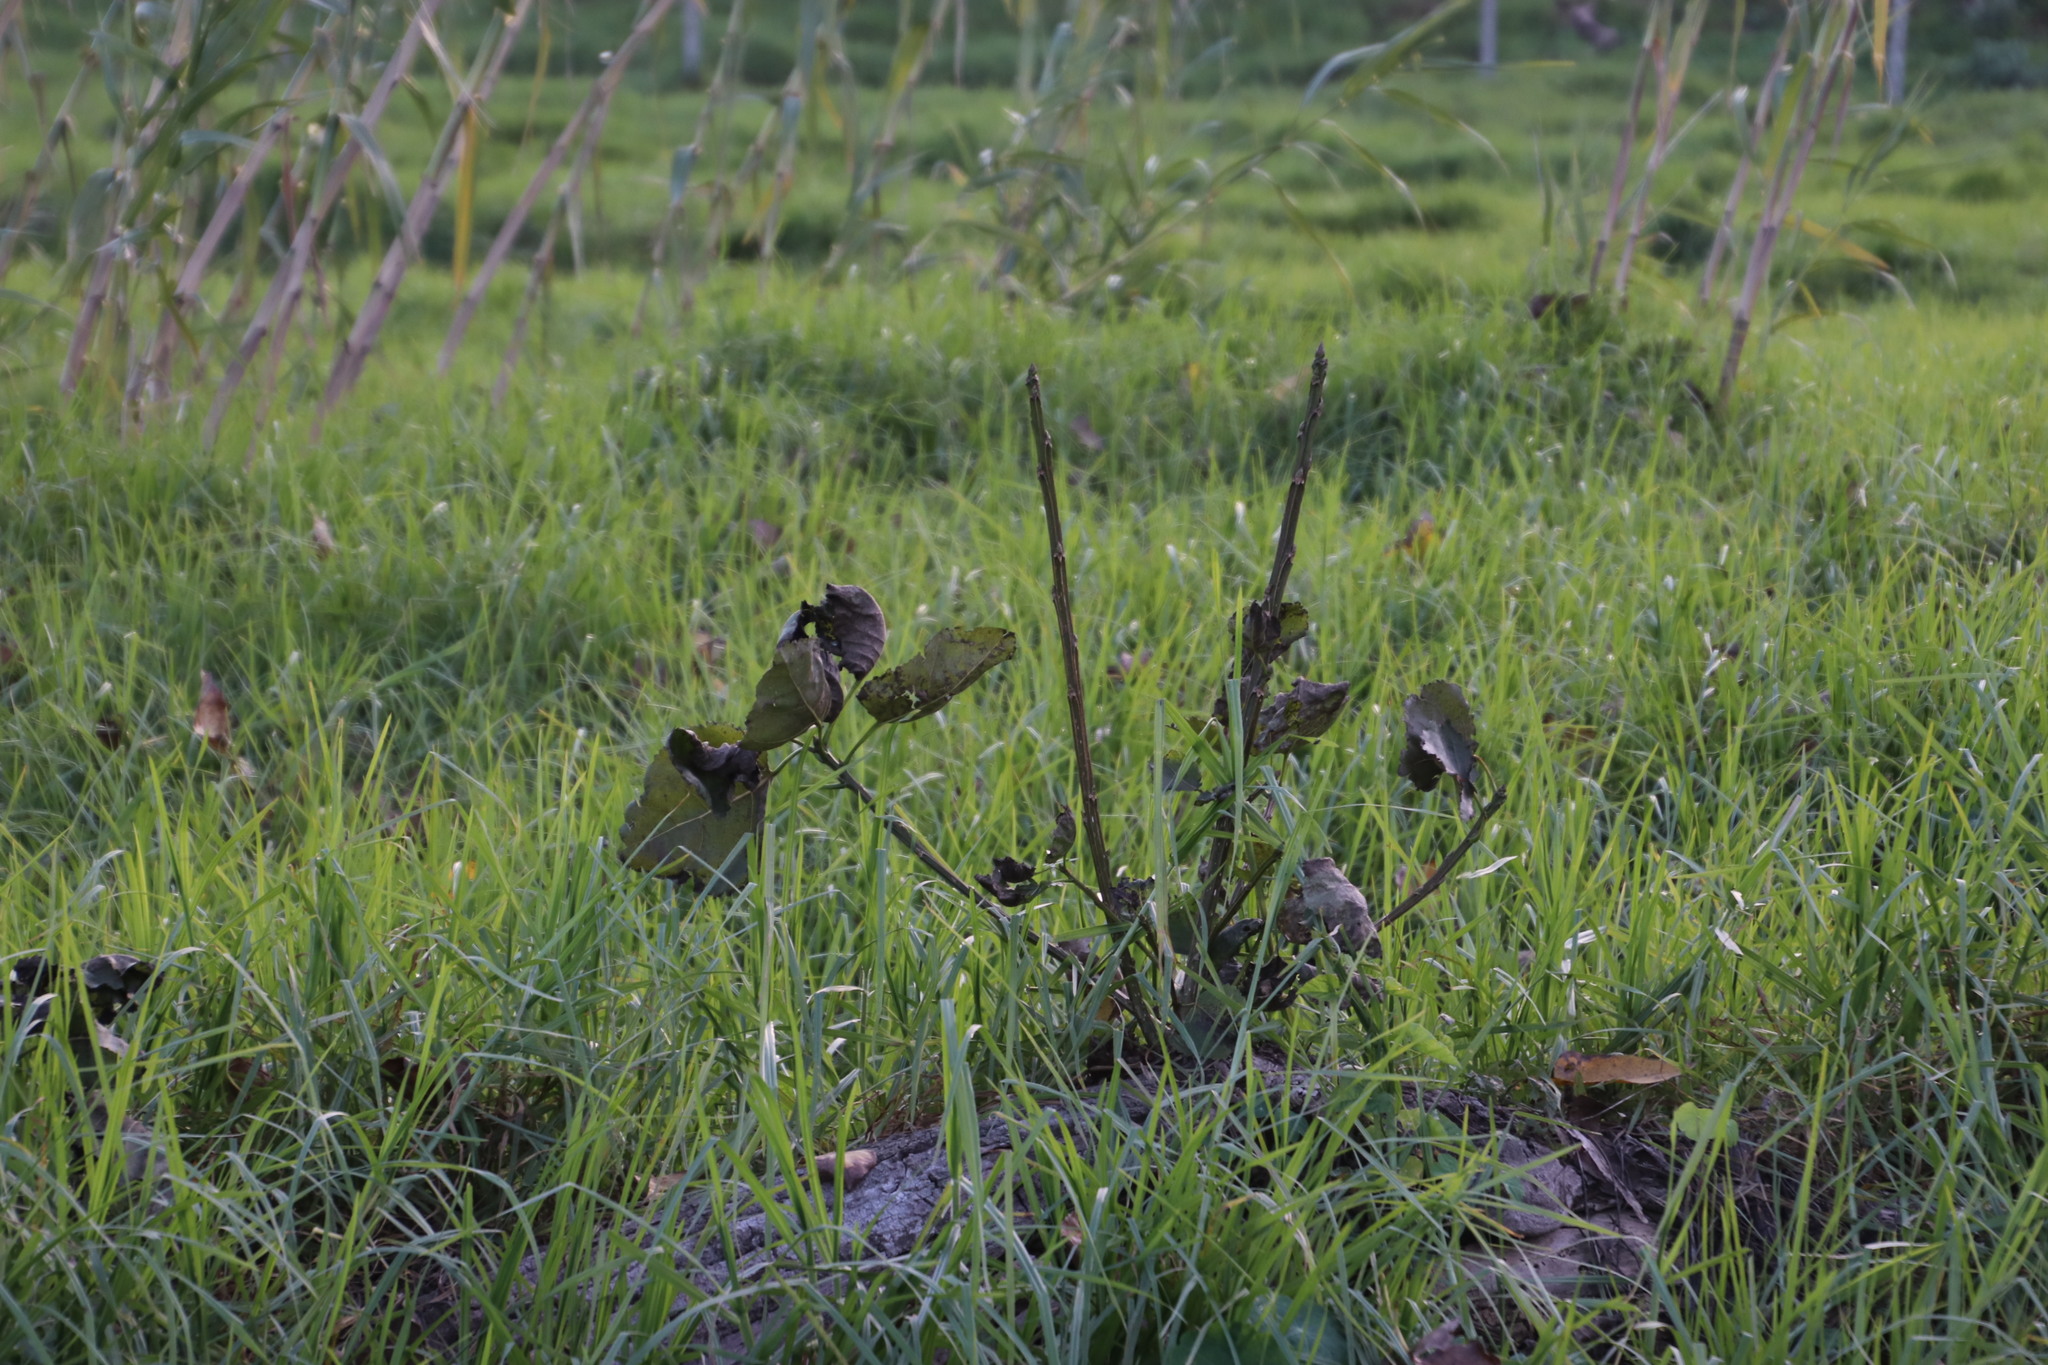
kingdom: Plantae
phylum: Tracheophyta
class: Magnoliopsida
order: Malpighiales
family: Salicaceae
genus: Populus
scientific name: Populus deltoides
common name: Eastern cottonwood
